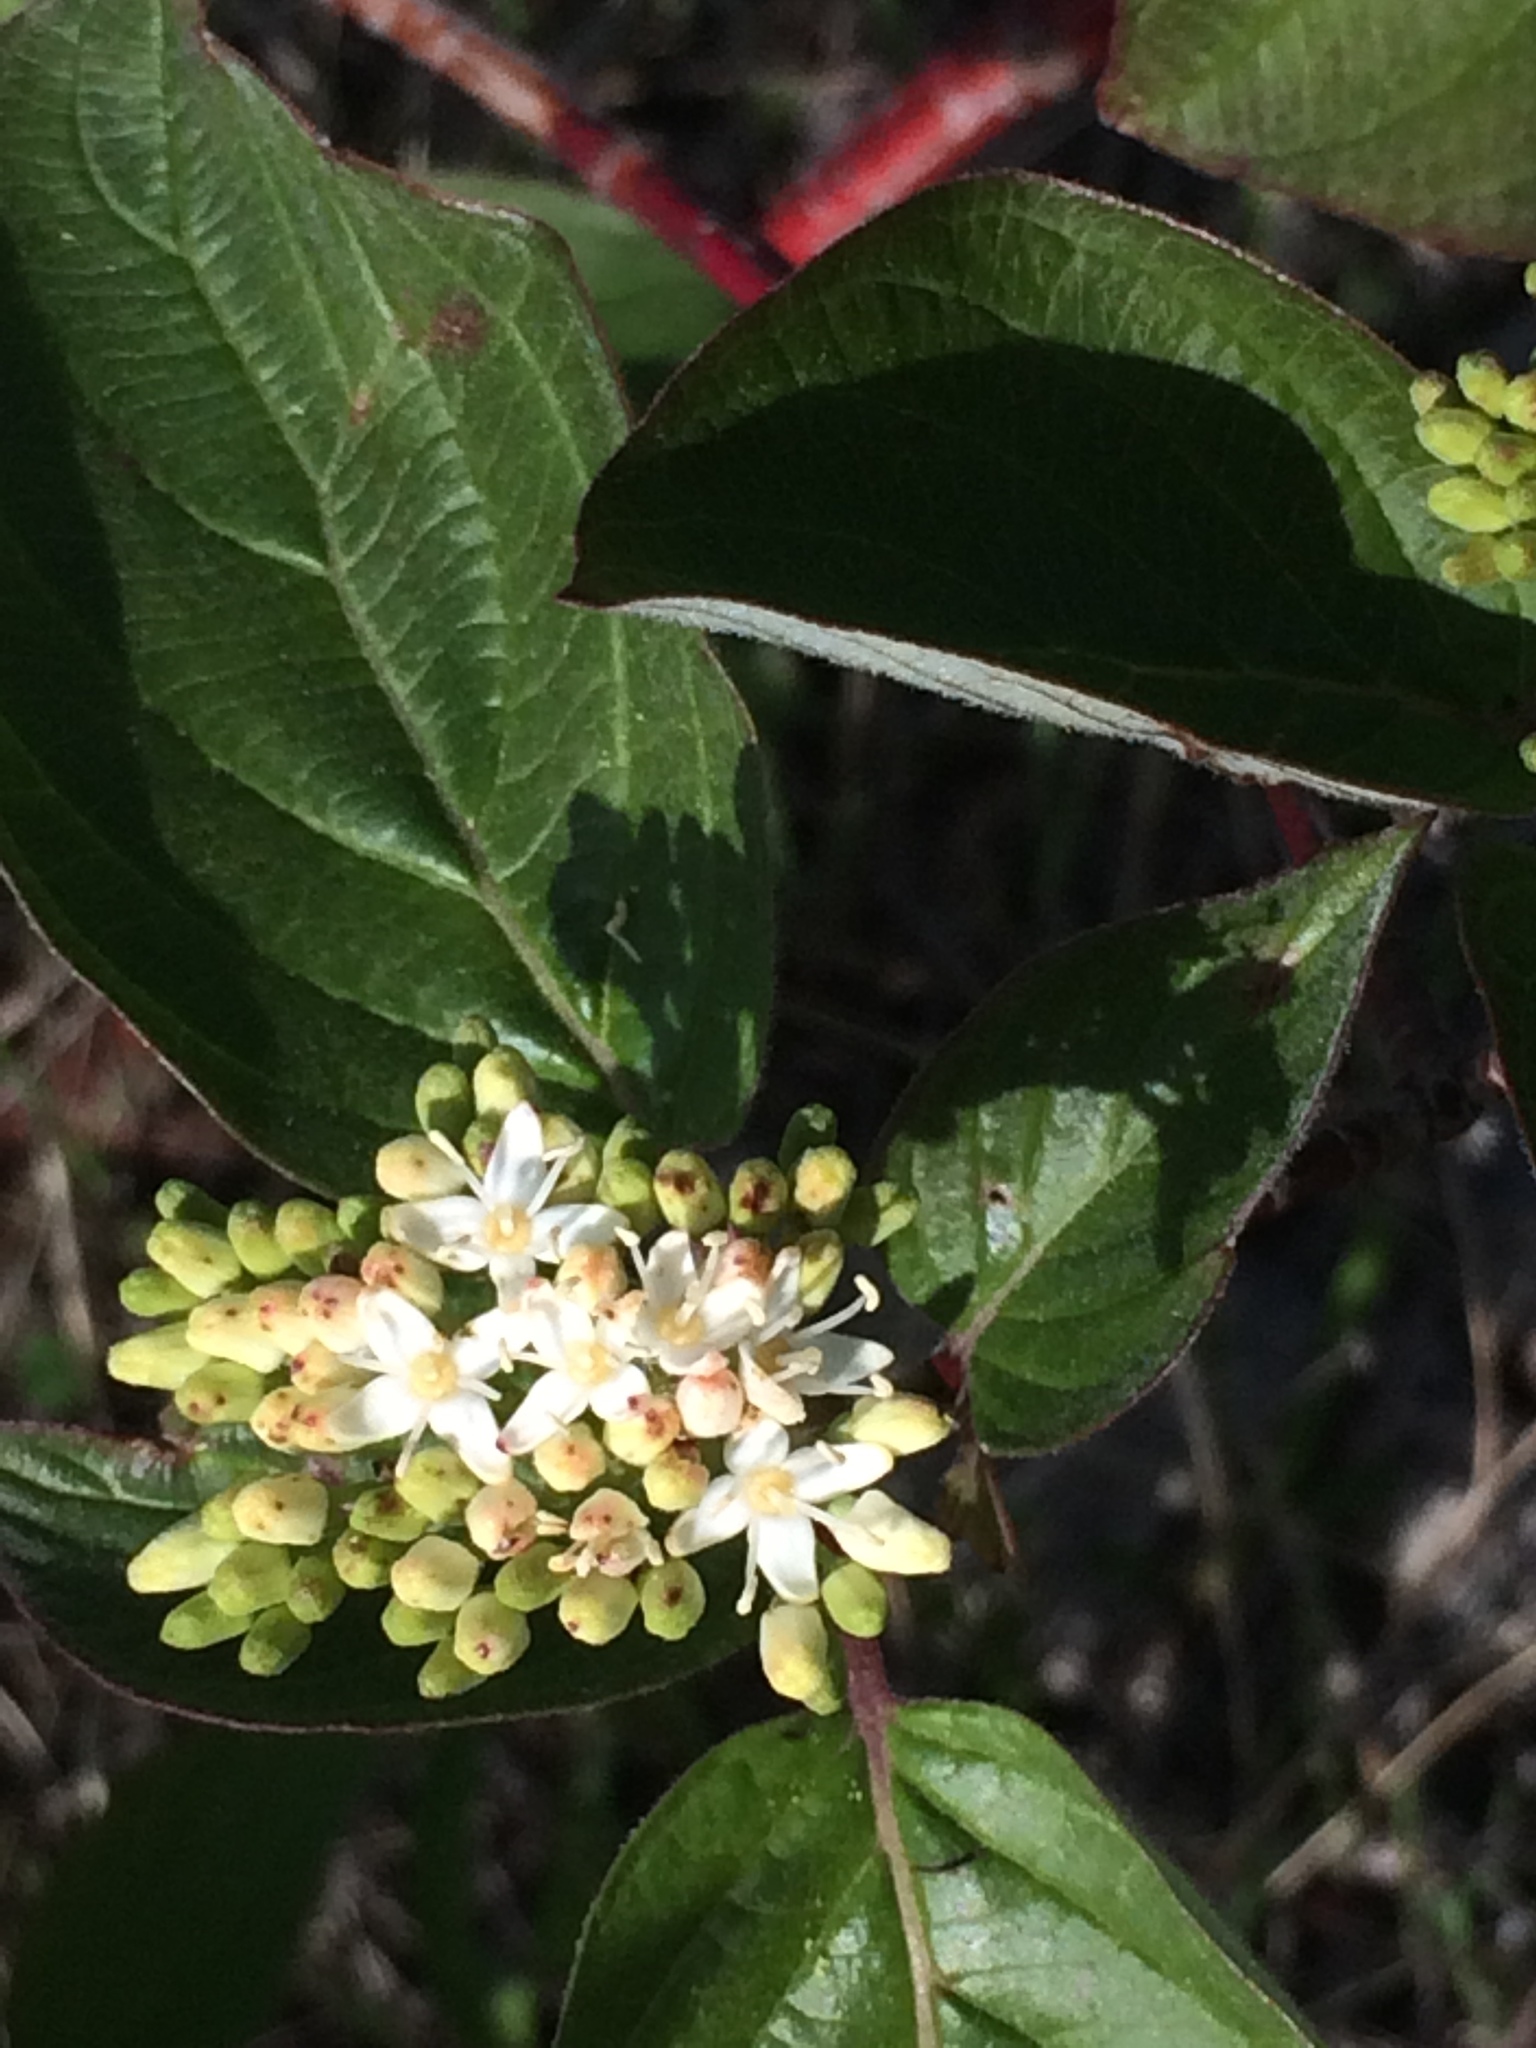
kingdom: Plantae
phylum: Tracheophyta
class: Magnoliopsida
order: Cornales
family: Cornaceae
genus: Cornus
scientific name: Cornus sericea
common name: Red-osier dogwood
